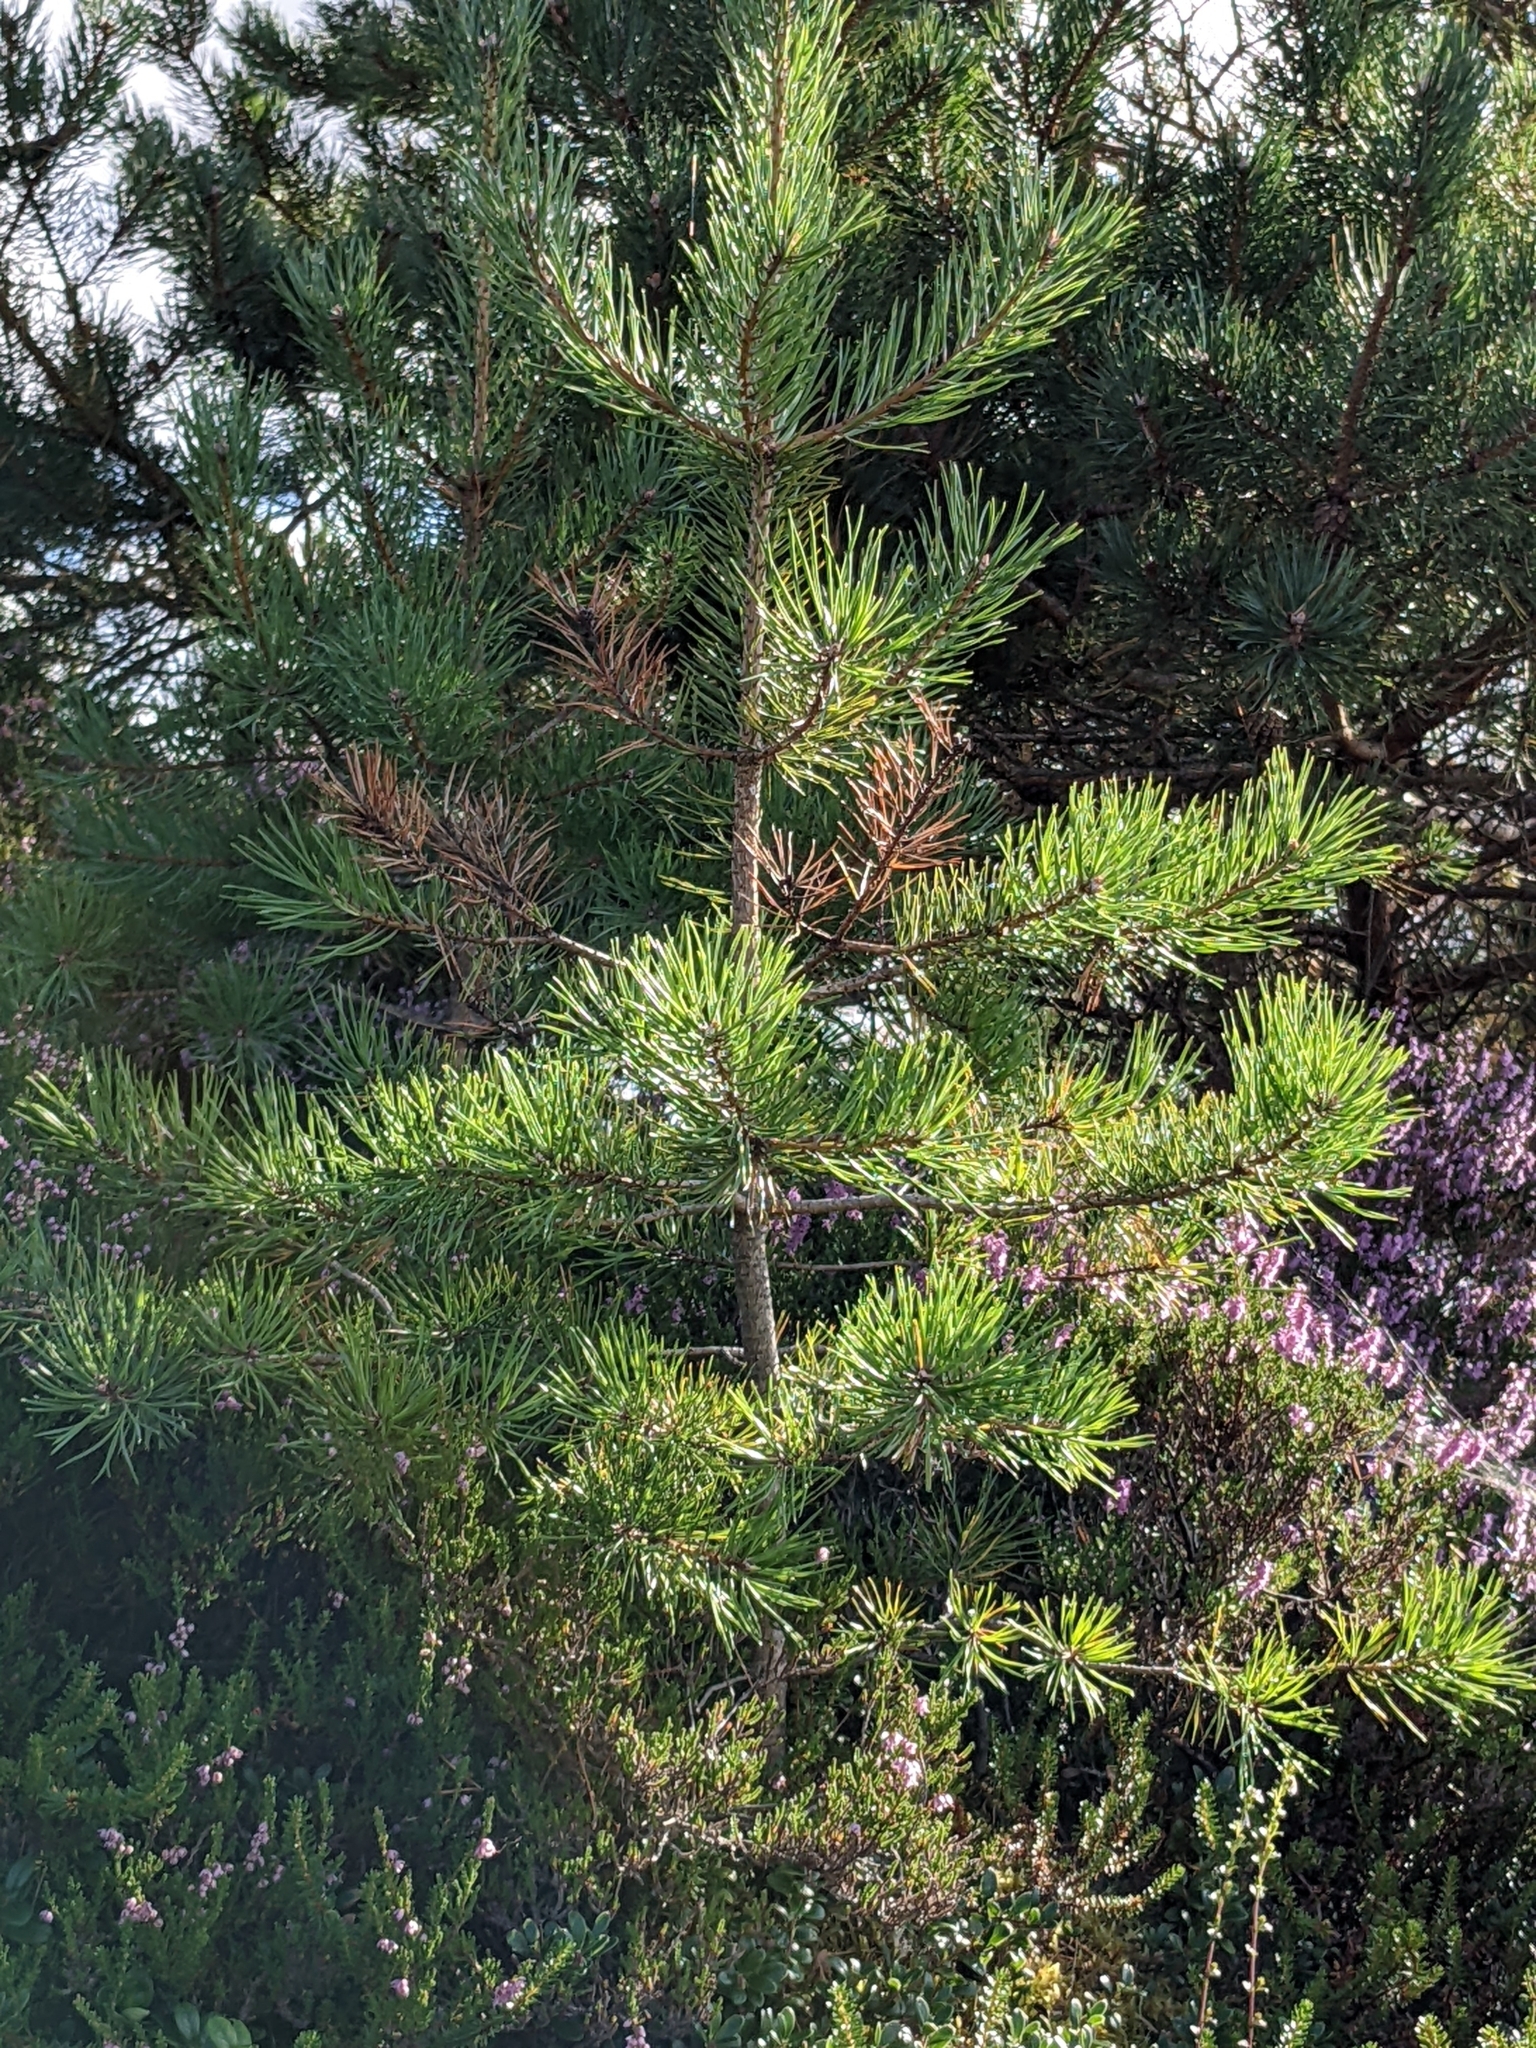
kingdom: Plantae
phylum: Tracheophyta
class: Pinopsida
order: Pinales
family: Pinaceae
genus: Pinus
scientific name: Pinus sylvestris
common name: Scots pine
